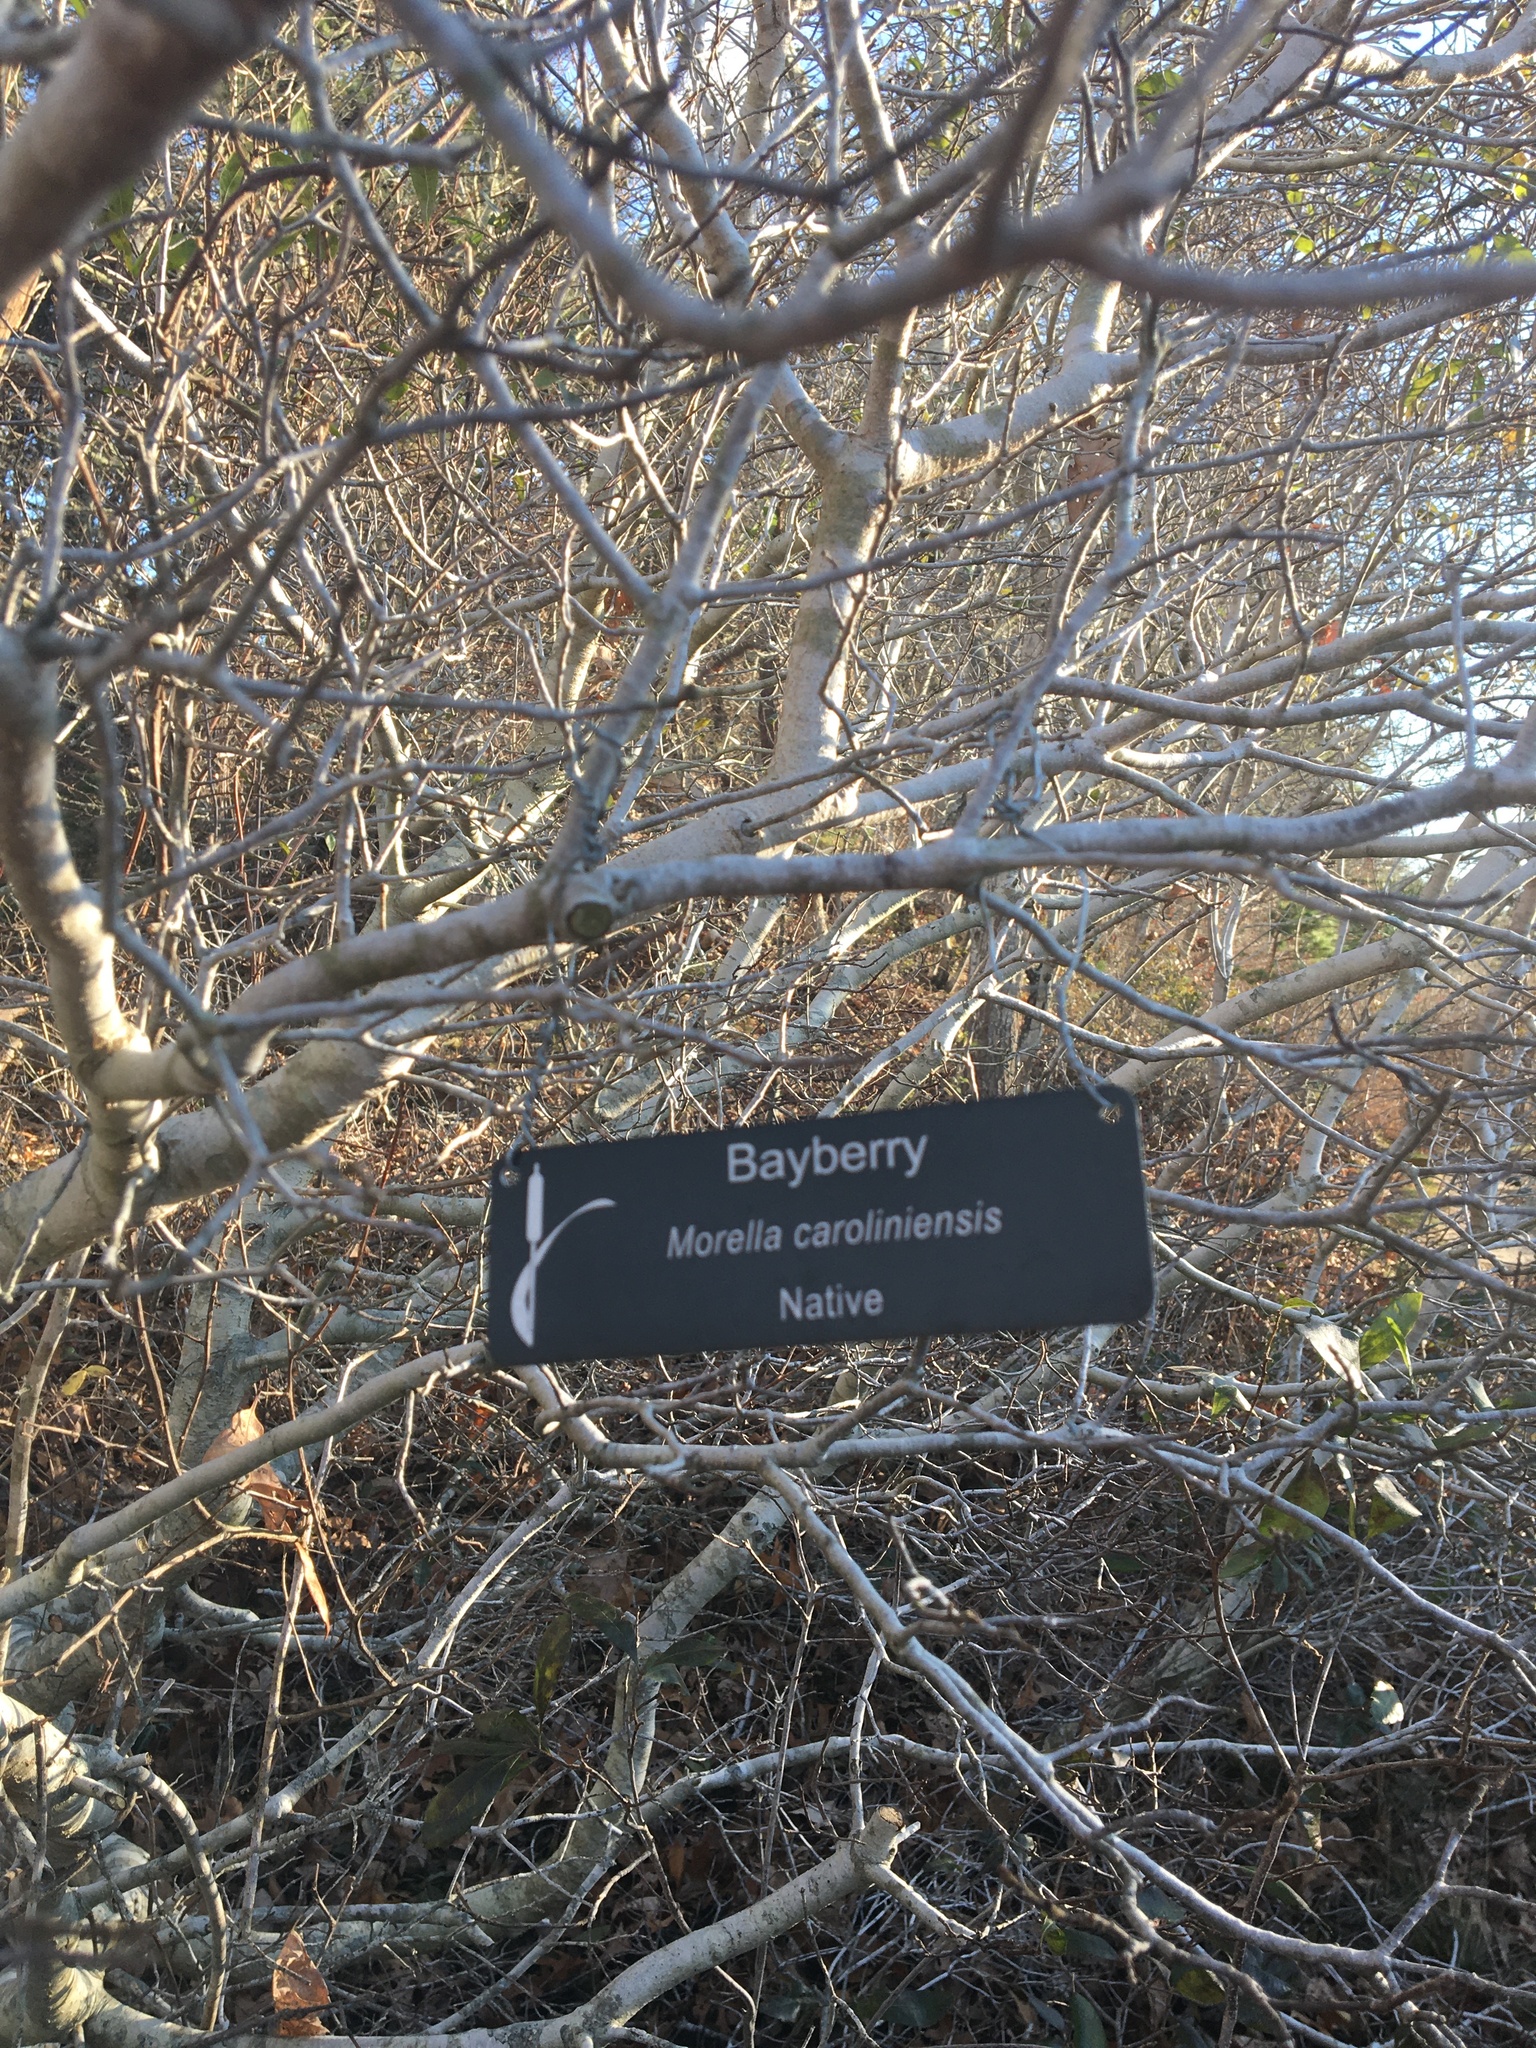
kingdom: Plantae
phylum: Tracheophyta
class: Magnoliopsida
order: Fagales
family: Myricaceae
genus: Morella
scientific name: Morella pensylvanica
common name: Northern bayberry
